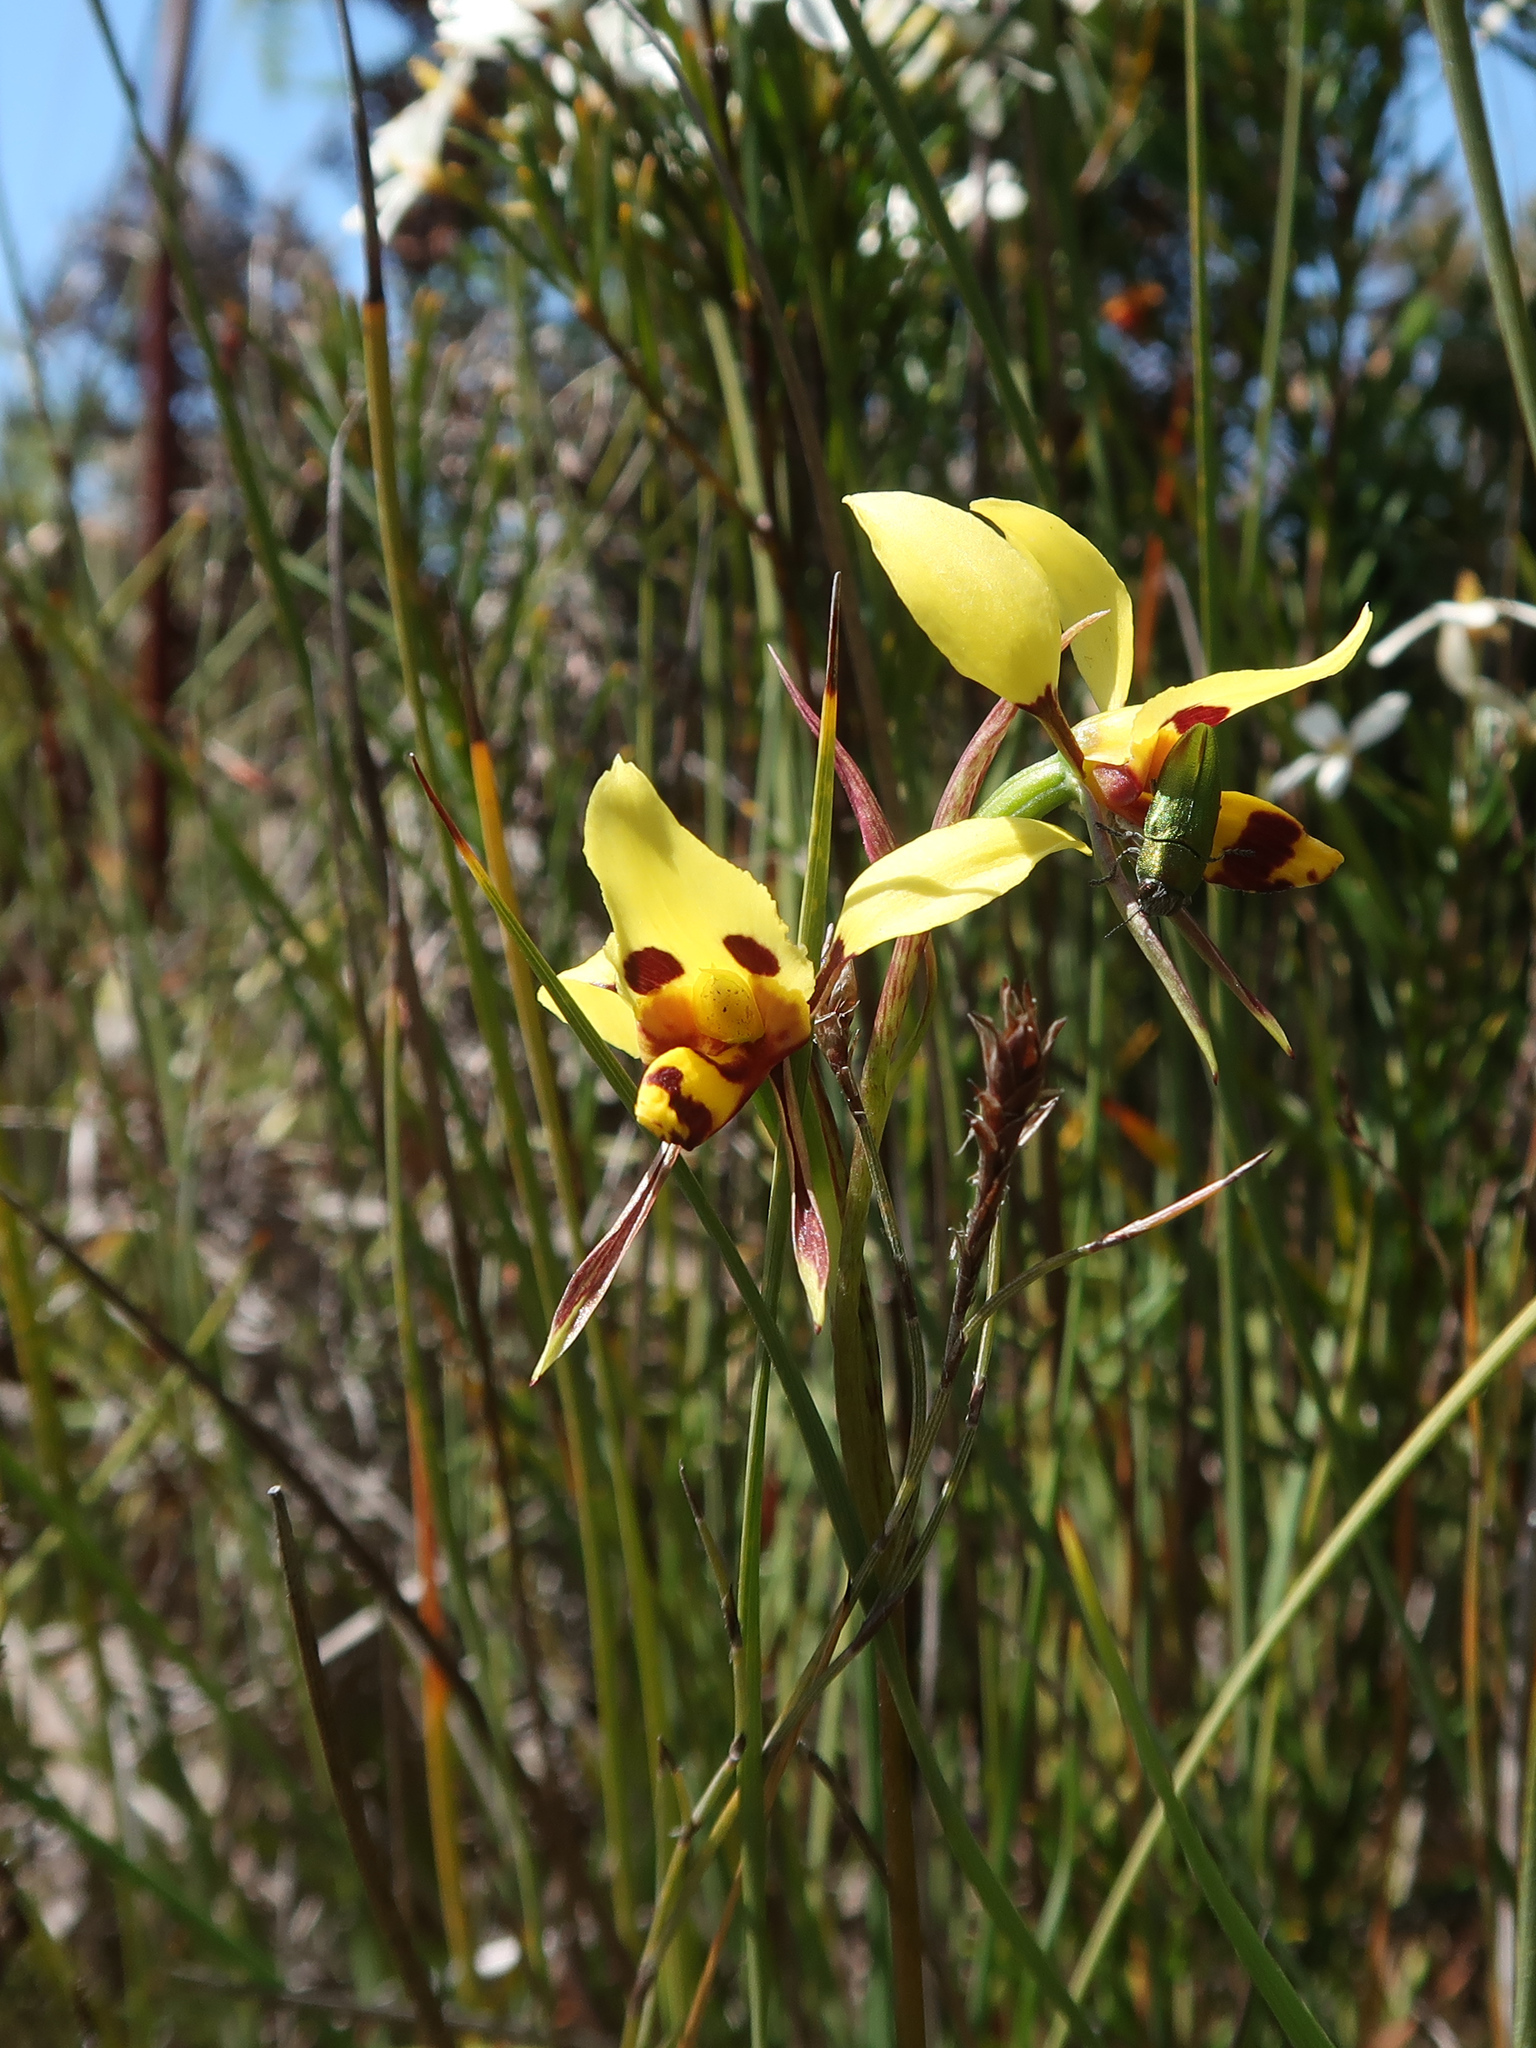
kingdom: Plantae
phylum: Tracheophyta
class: Liliopsida
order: Asparagales
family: Orchidaceae
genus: Diuris
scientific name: Diuris sulphurea
